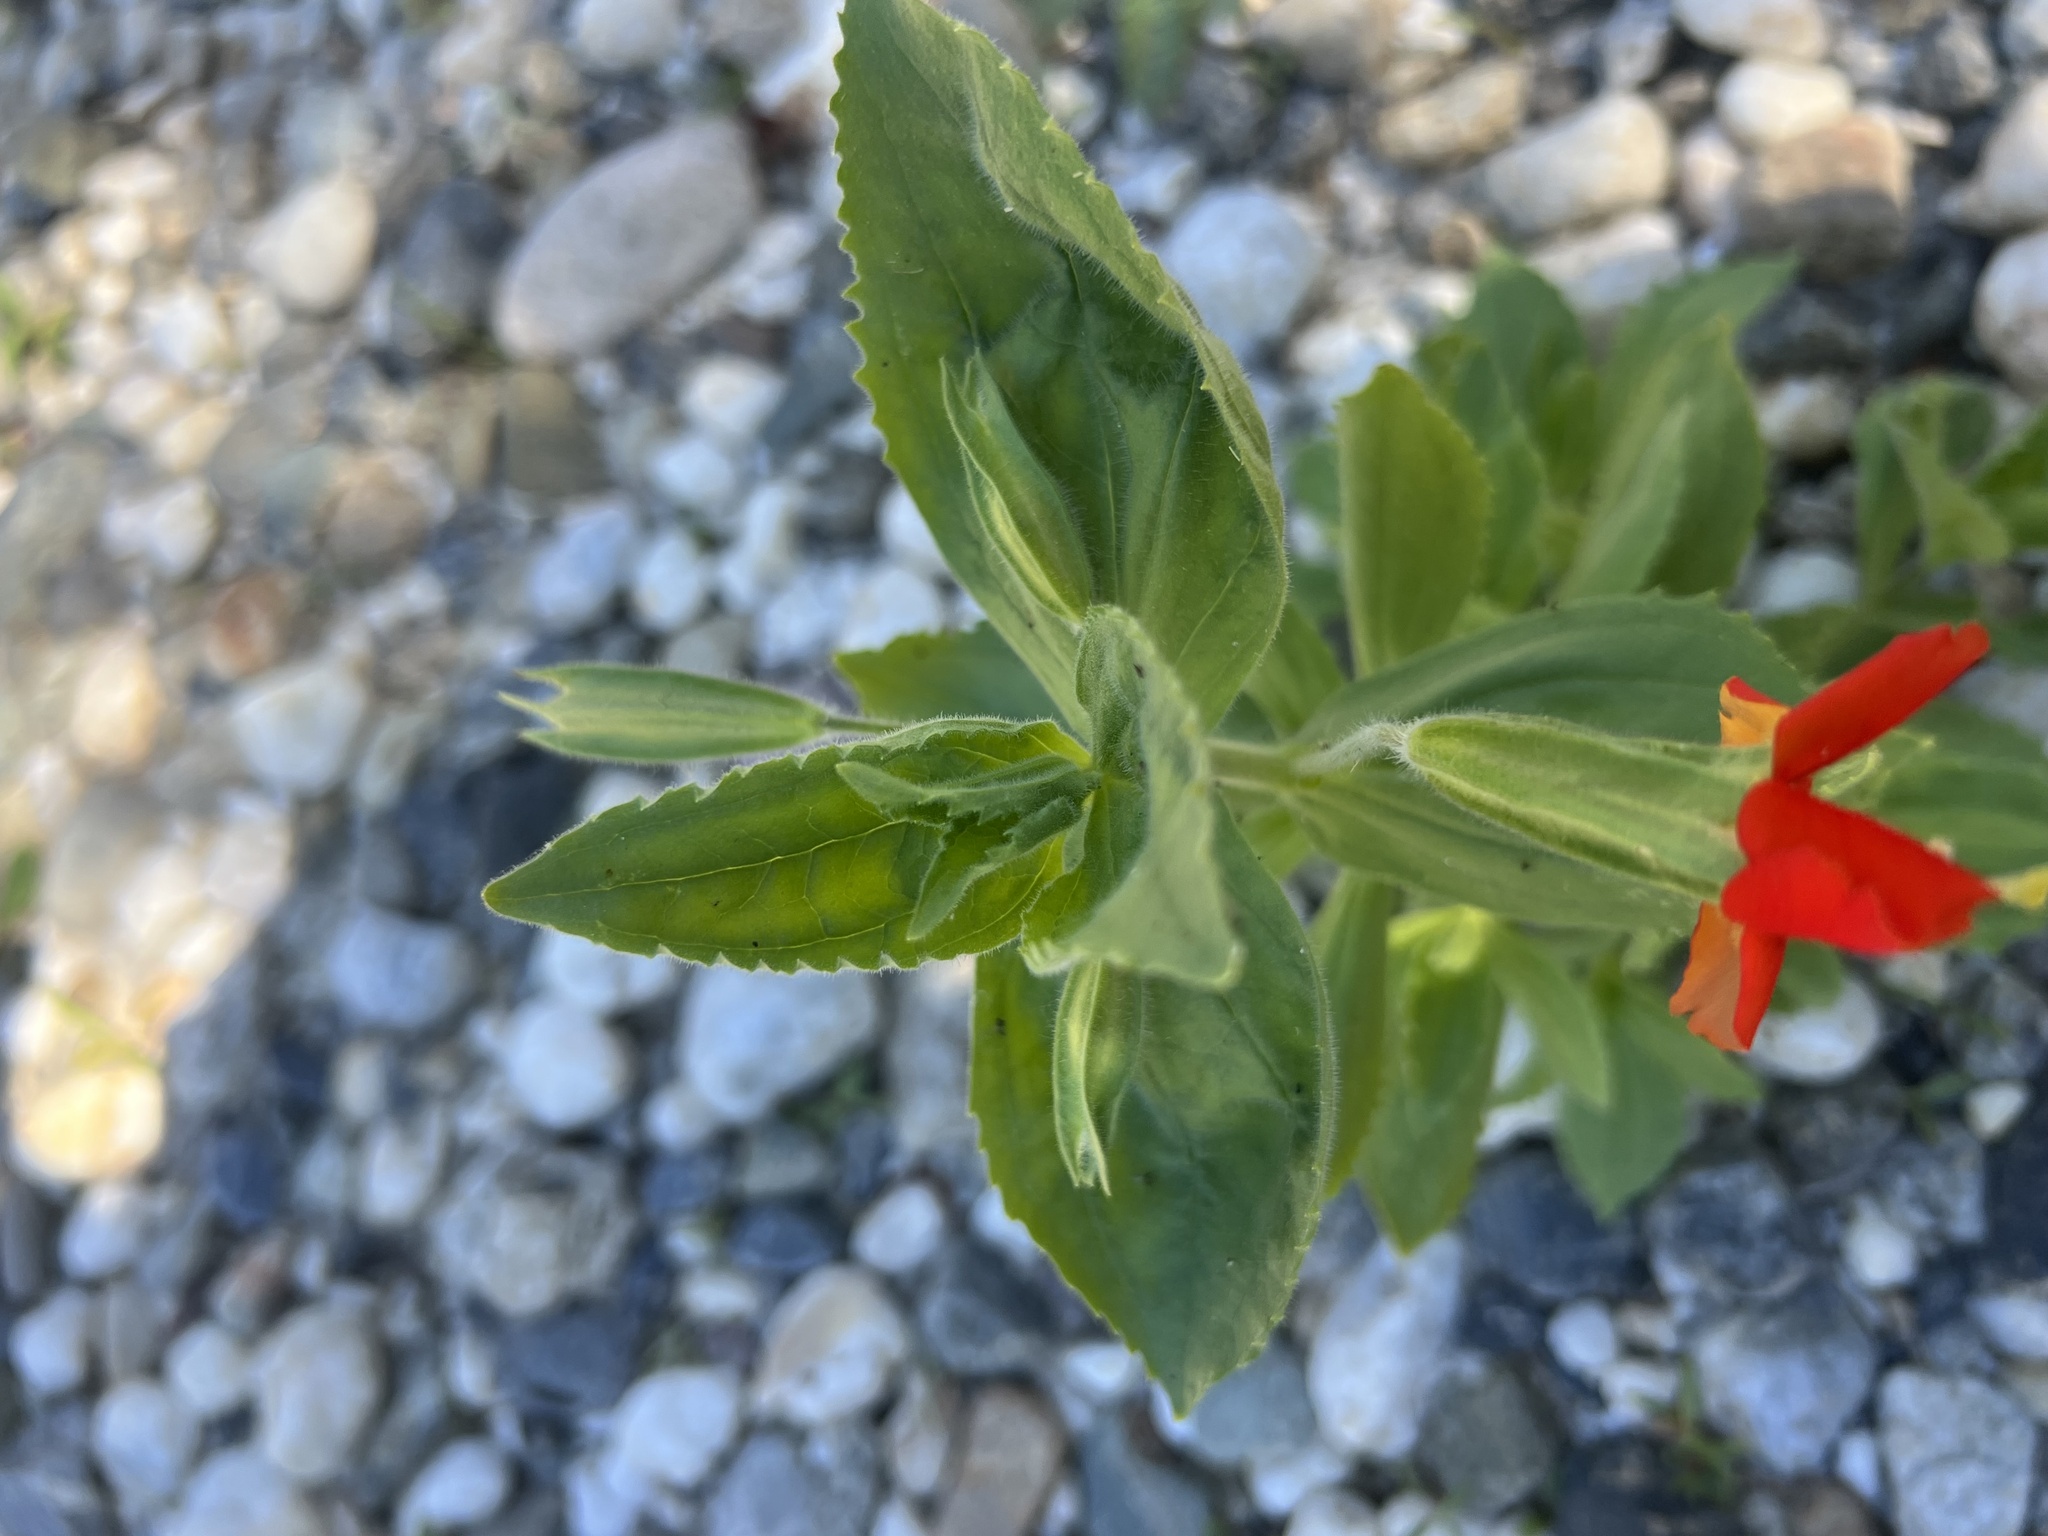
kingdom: Plantae
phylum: Tracheophyta
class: Magnoliopsida
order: Lamiales
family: Phrymaceae
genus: Erythranthe
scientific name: Erythranthe cardinalis
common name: Scarlet monkey-flower
